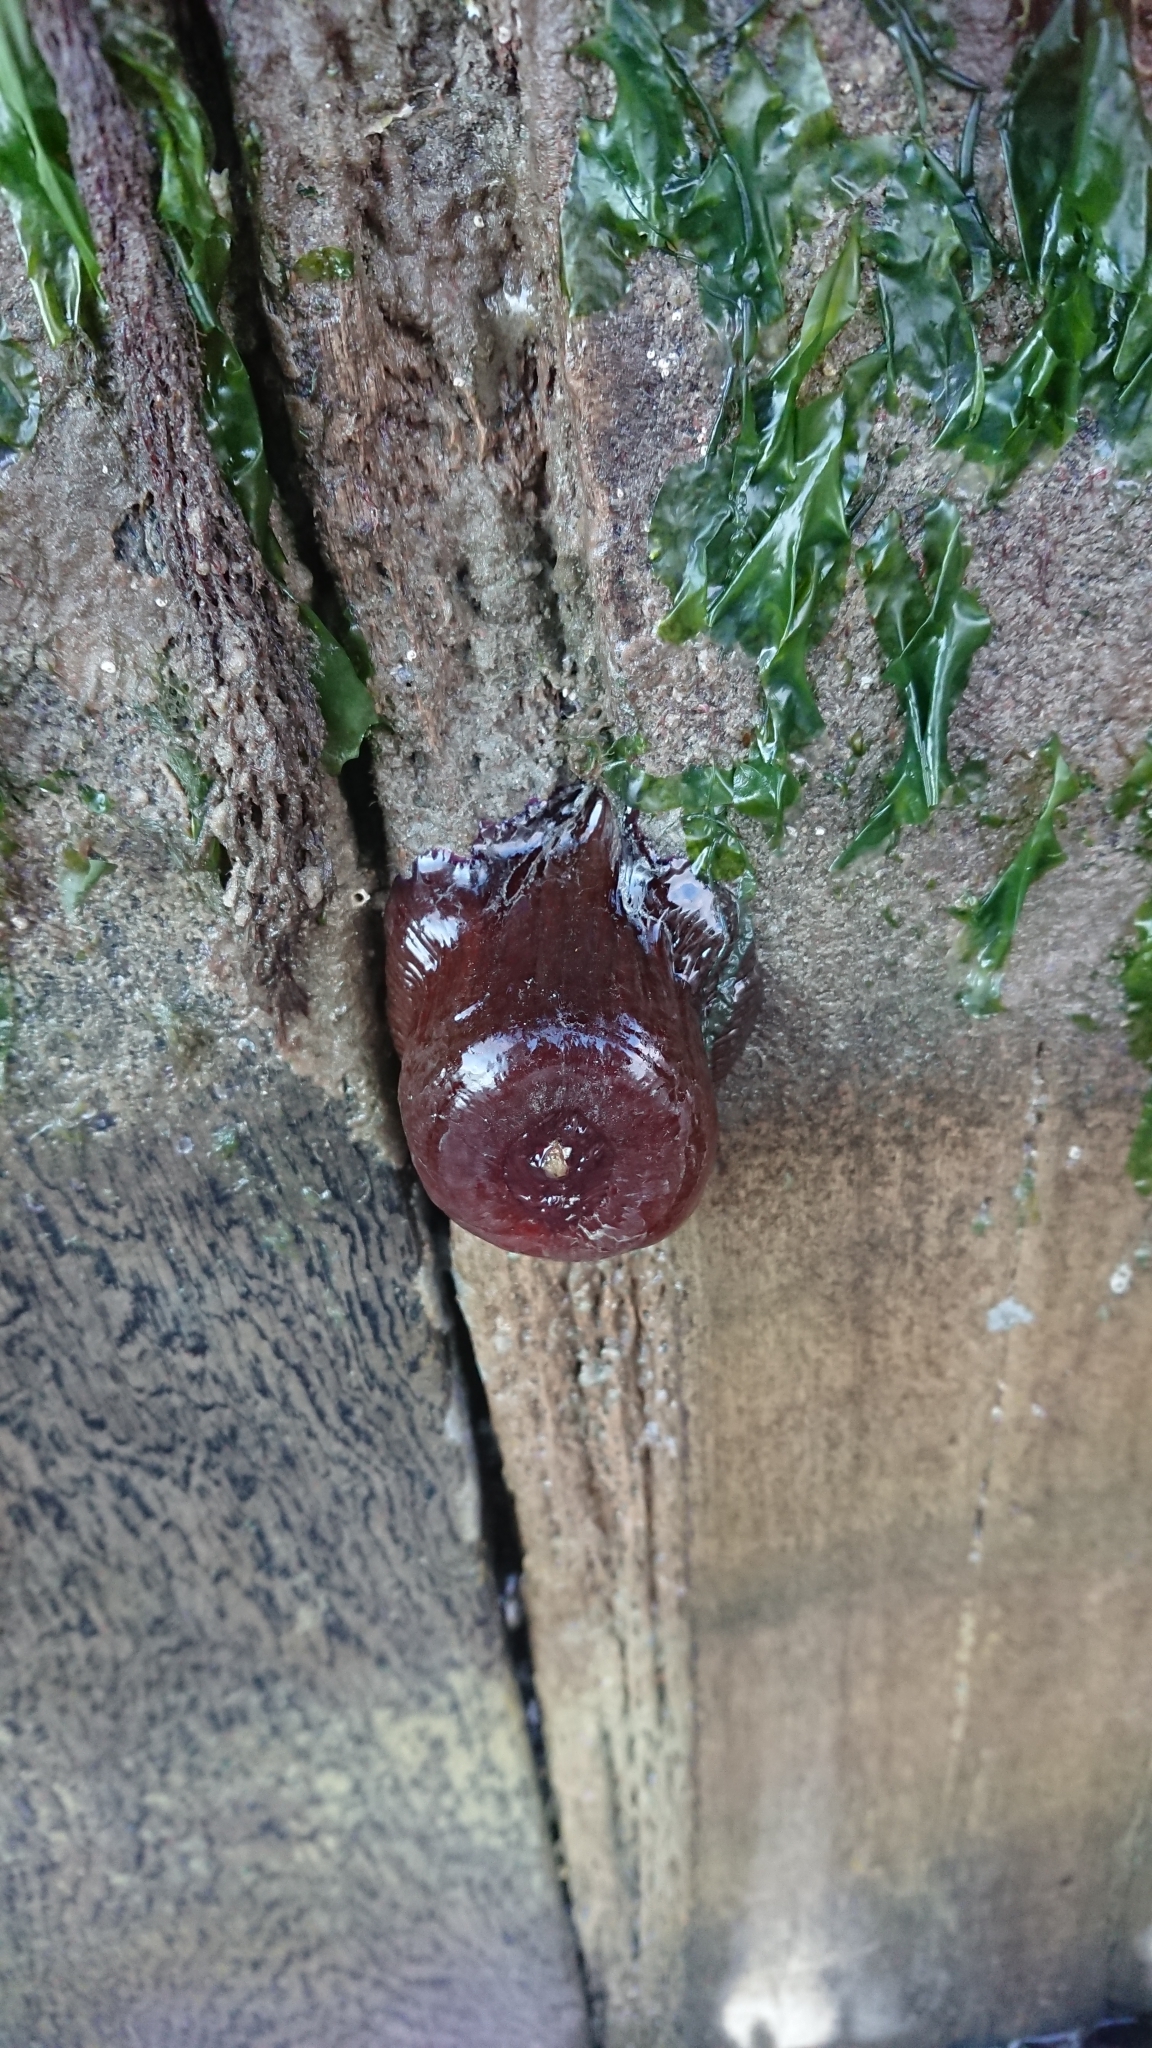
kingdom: Animalia
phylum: Cnidaria
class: Anthozoa
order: Actiniaria
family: Actiniidae
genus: Actinia
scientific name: Actinia equina
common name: Beadlet anemone
